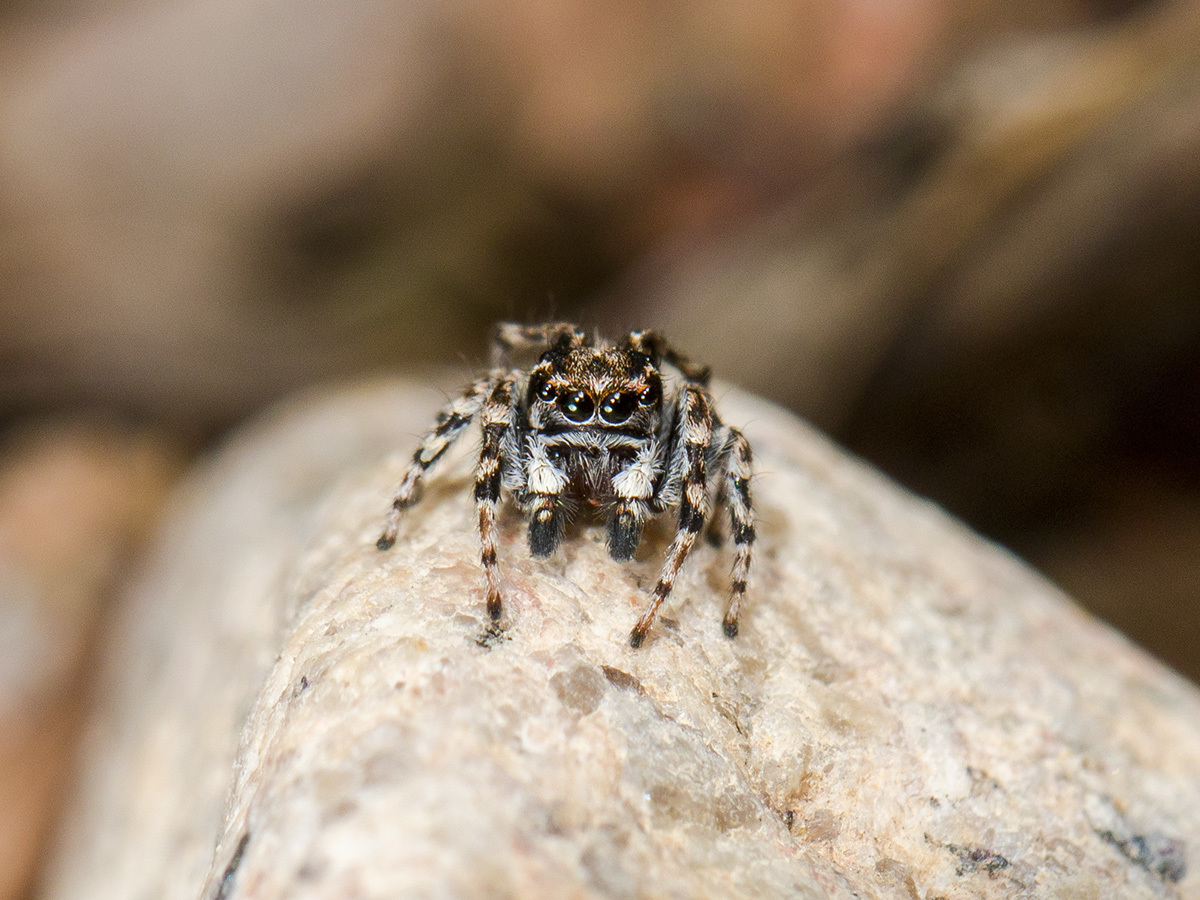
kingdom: Animalia
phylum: Arthropoda
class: Arachnida
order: Araneae
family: Salticidae
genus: Attulus
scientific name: Attulus distinguendus
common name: Distinguished jumper
